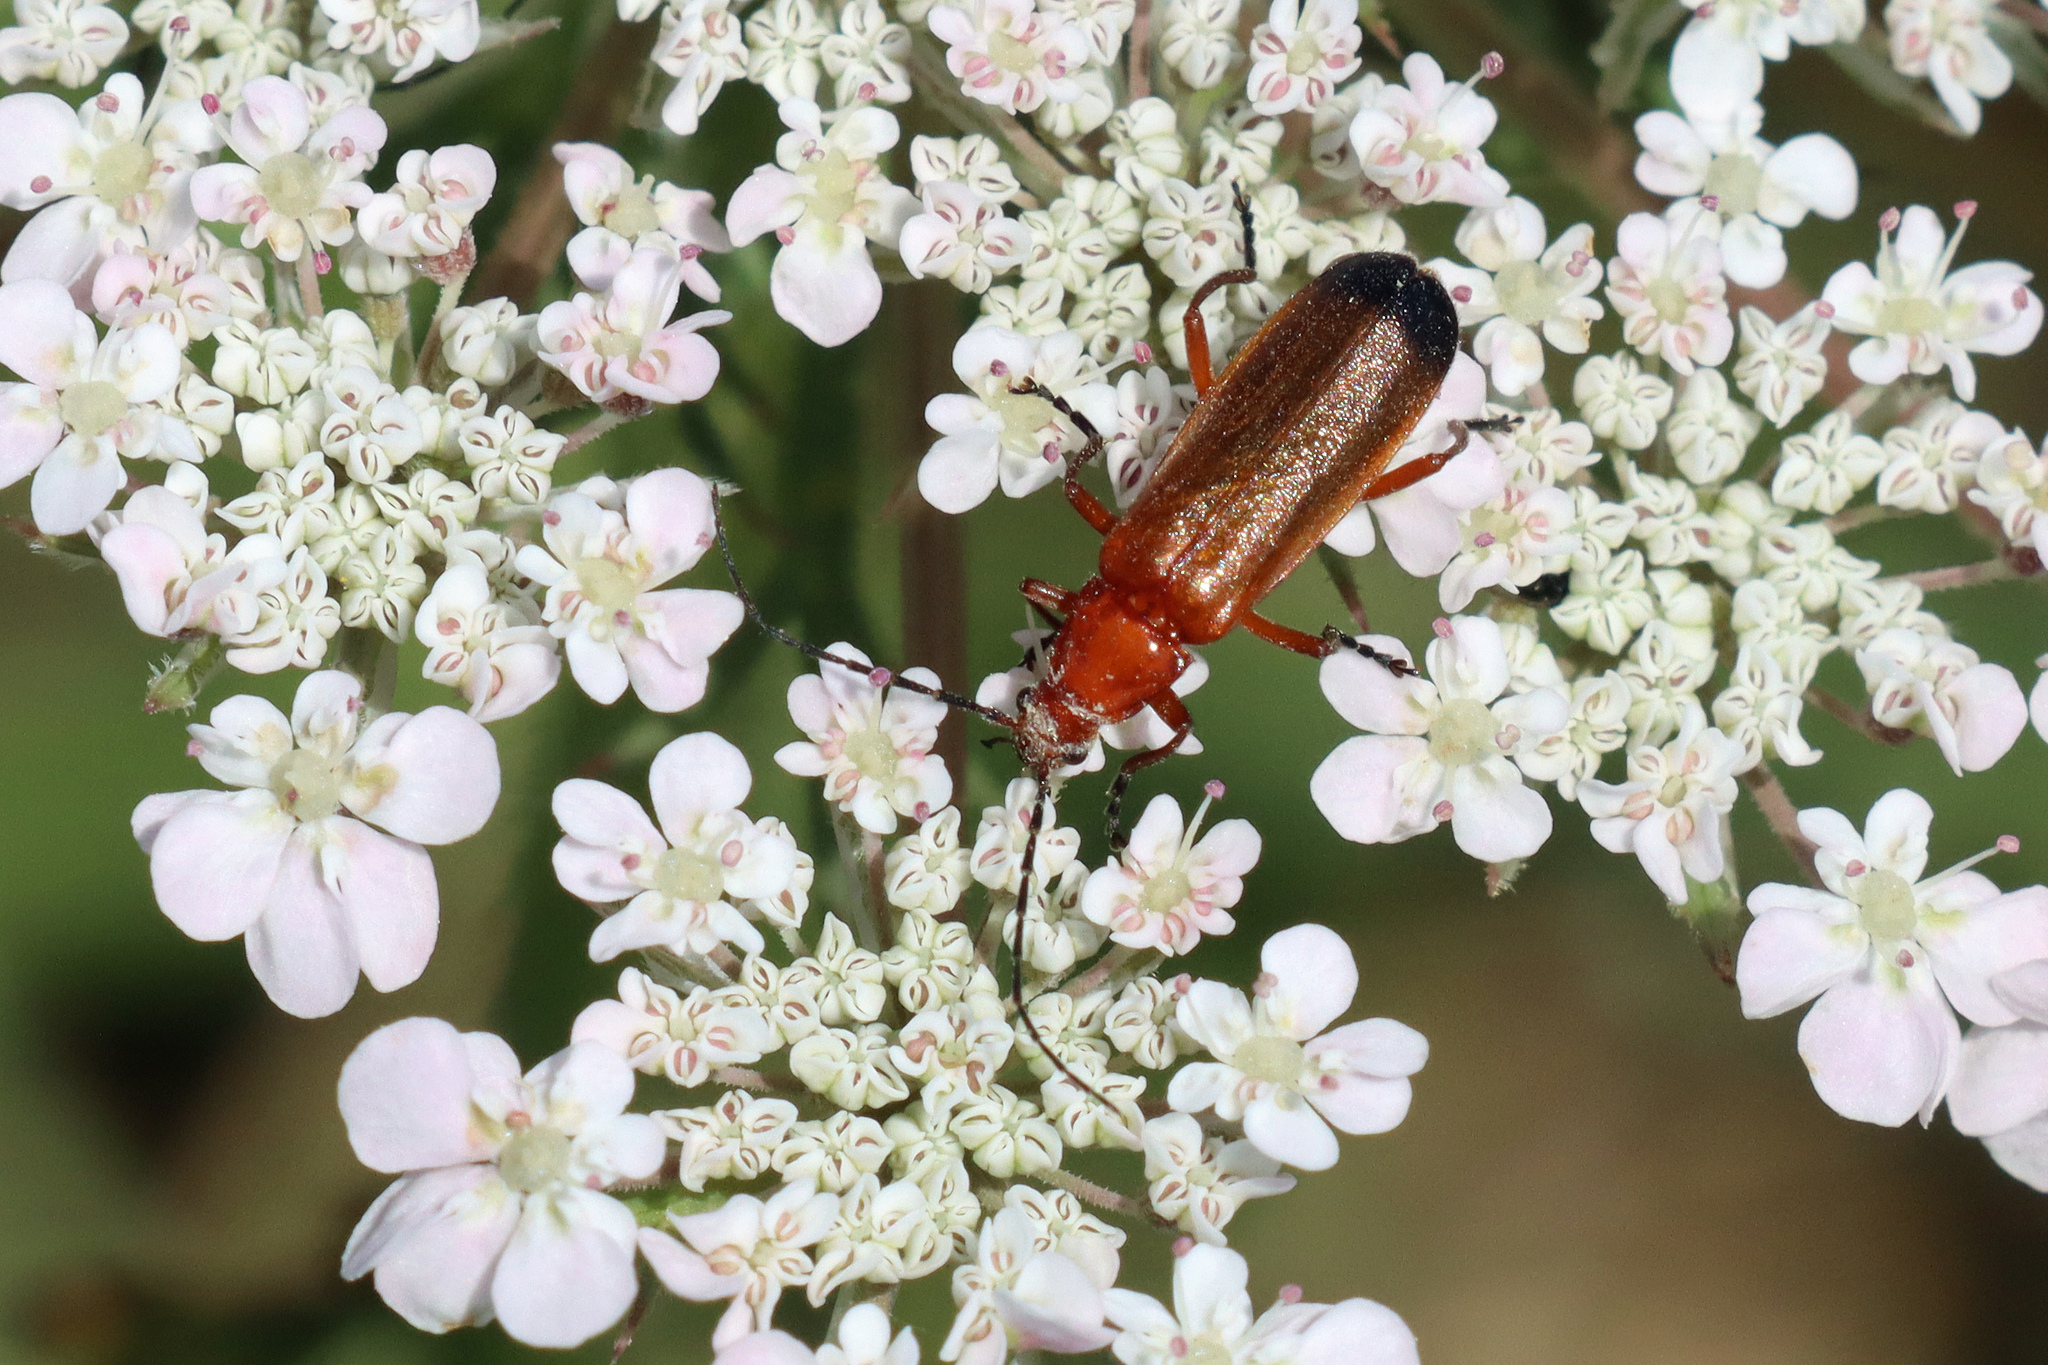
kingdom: Animalia
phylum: Arthropoda
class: Insecta
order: Coleoptera
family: Cantharidae
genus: Rhagonycha
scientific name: Rhagonycha fulva
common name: Common red soldier beetle
